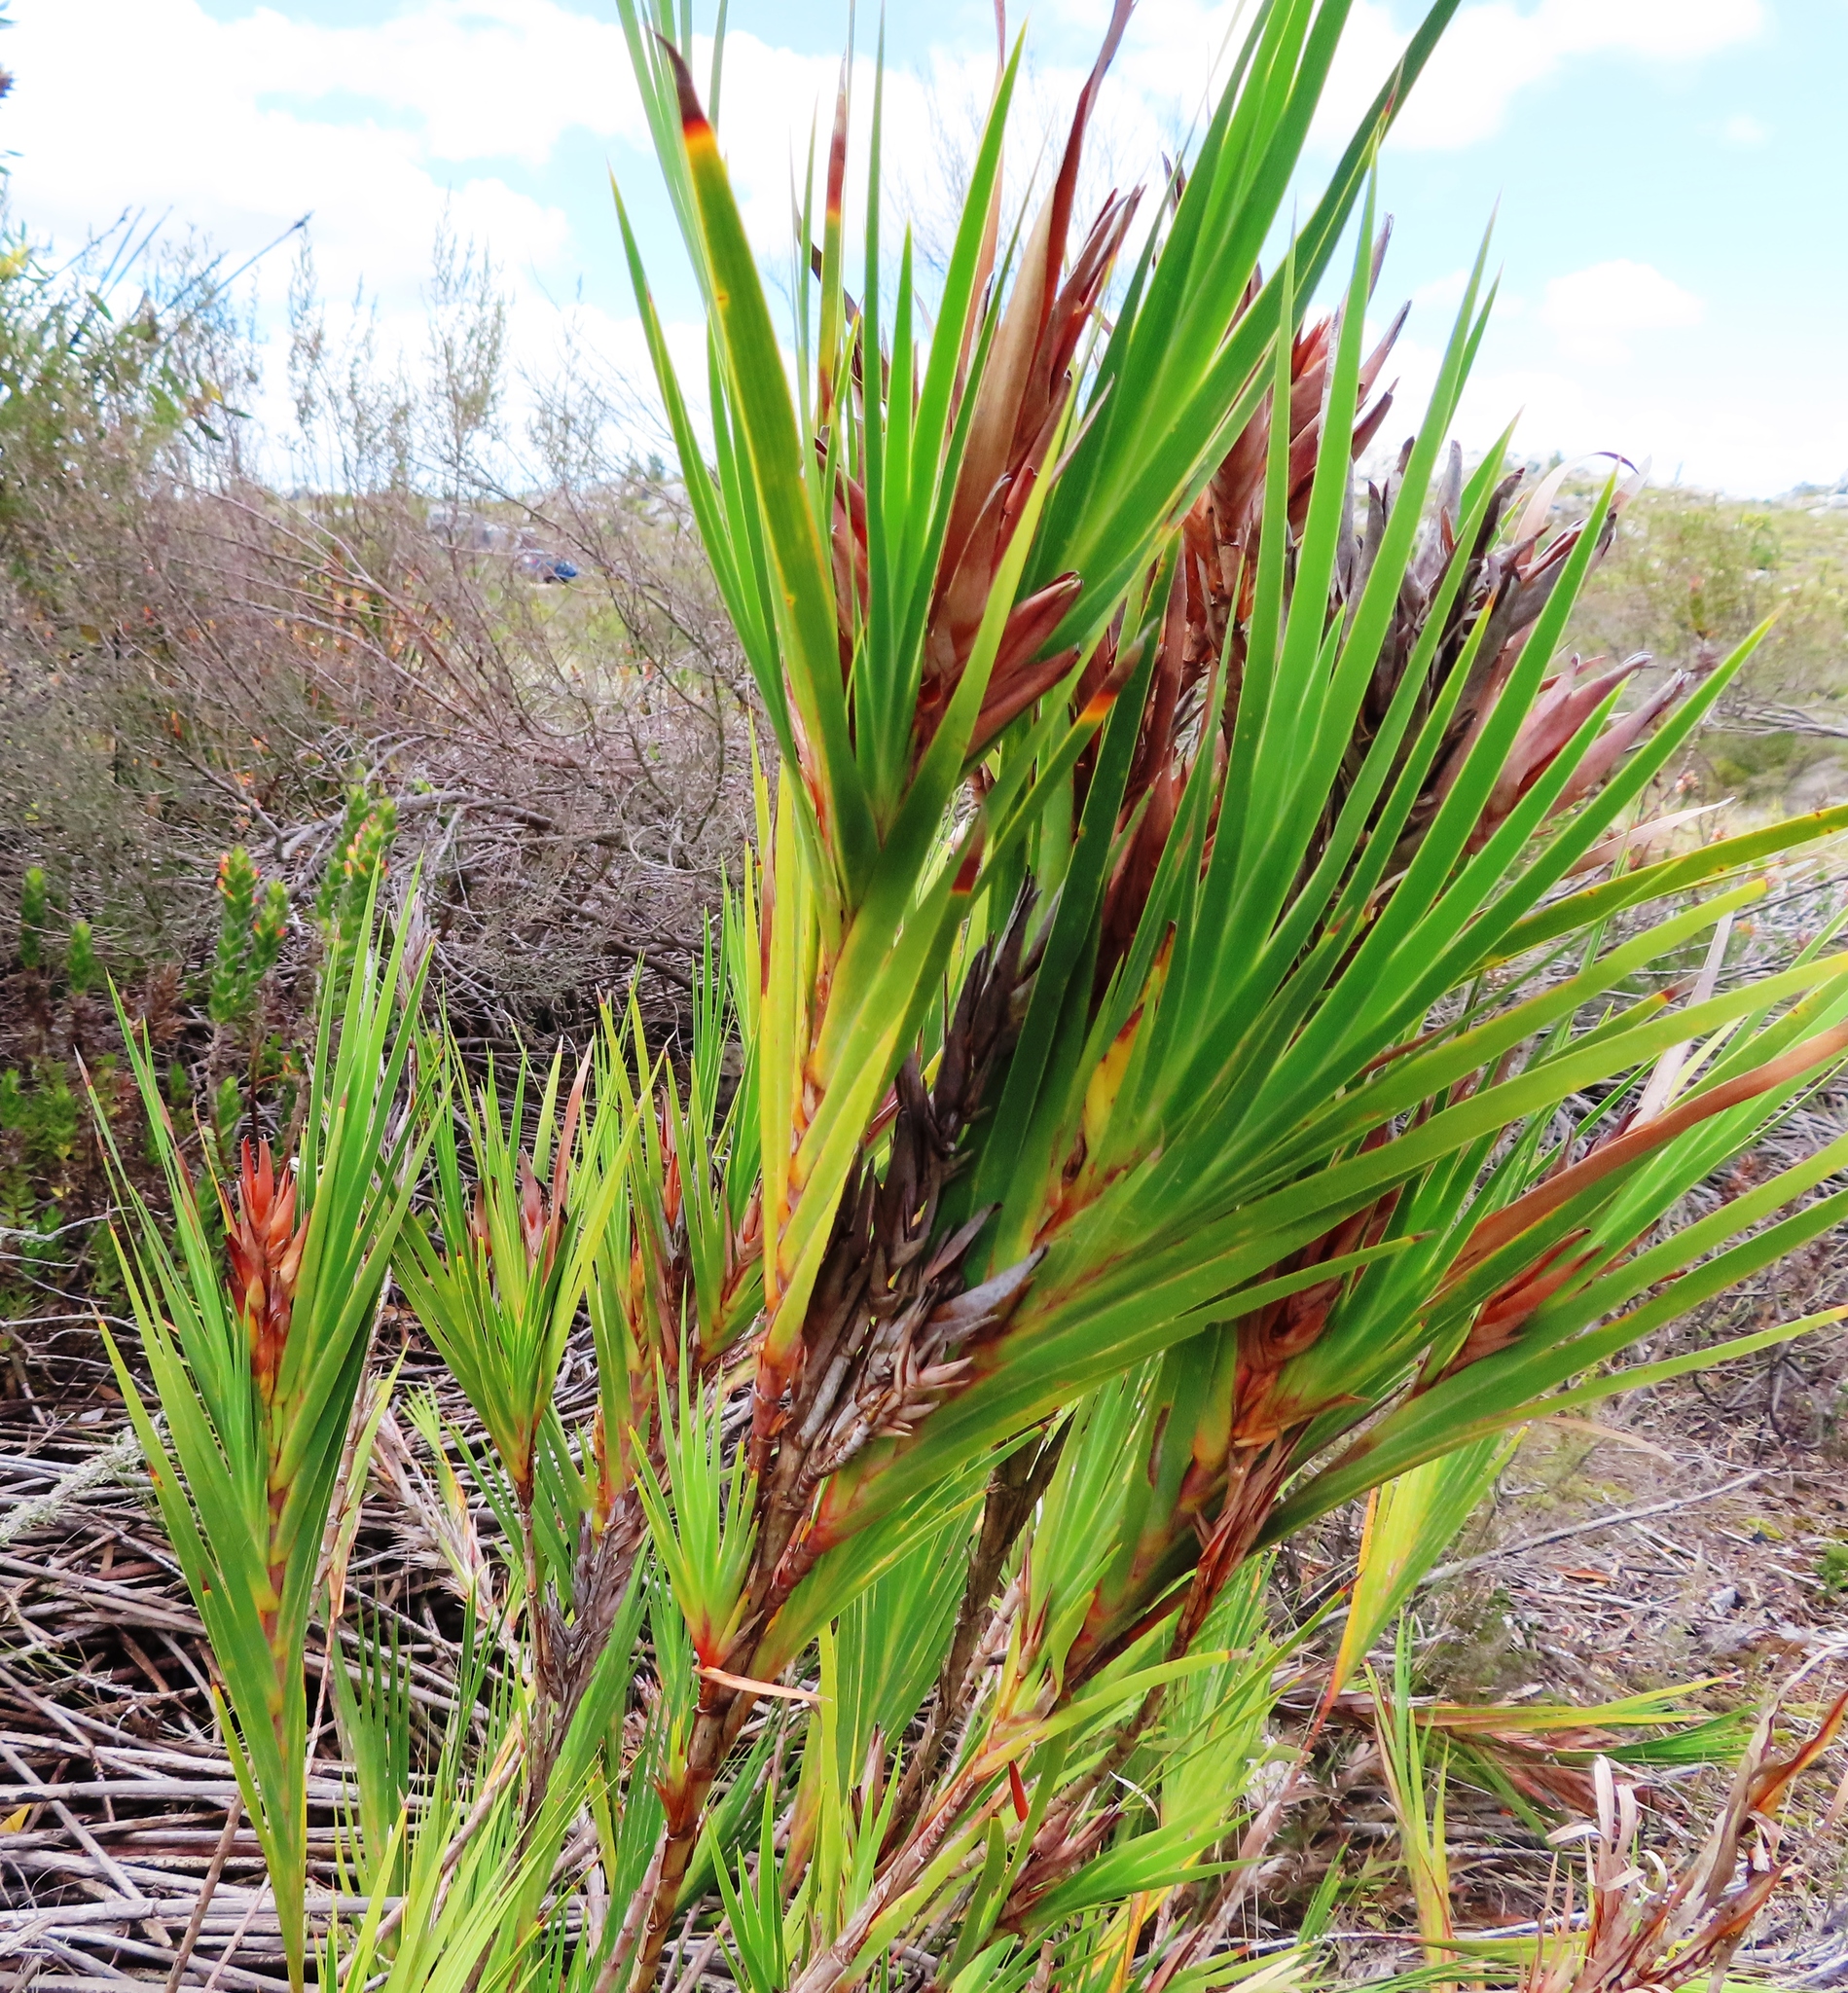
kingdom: Plantae
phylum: Tracheophyta
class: Liliopsida
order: Asparagales
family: Iridaceae
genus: Witsenia
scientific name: Witsenia maura
